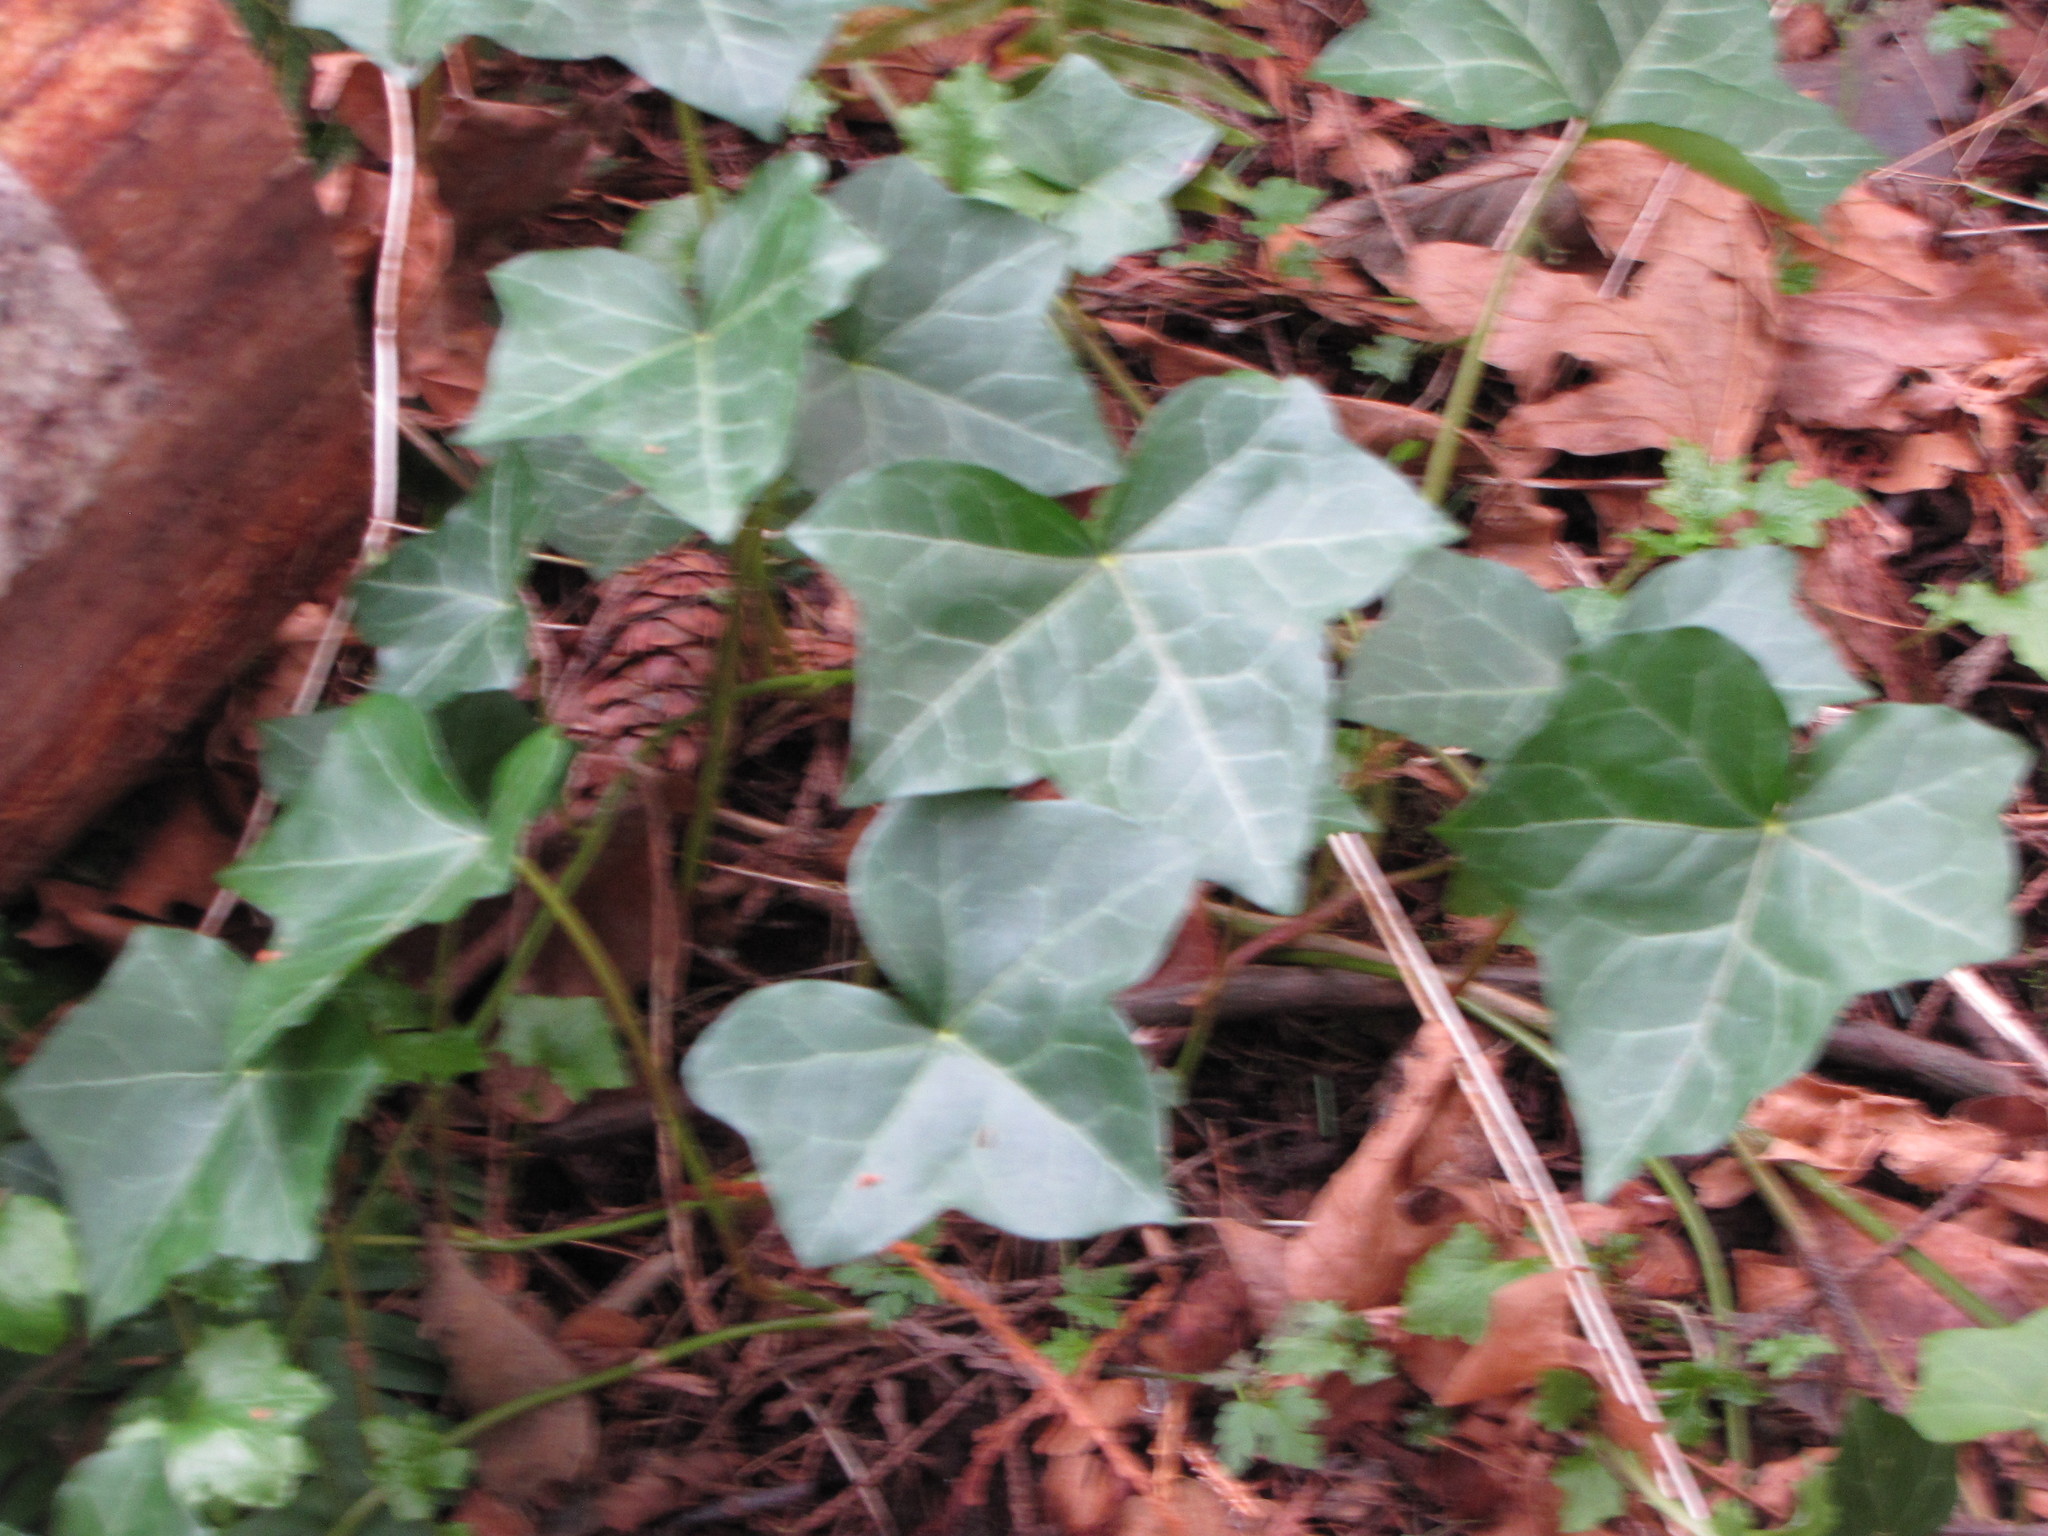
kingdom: Plantae
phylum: Tracheophyta
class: Magnoliopsida
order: Apiales
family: Araliaceae
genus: Hedera
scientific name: Hedera helix
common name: Ivy
